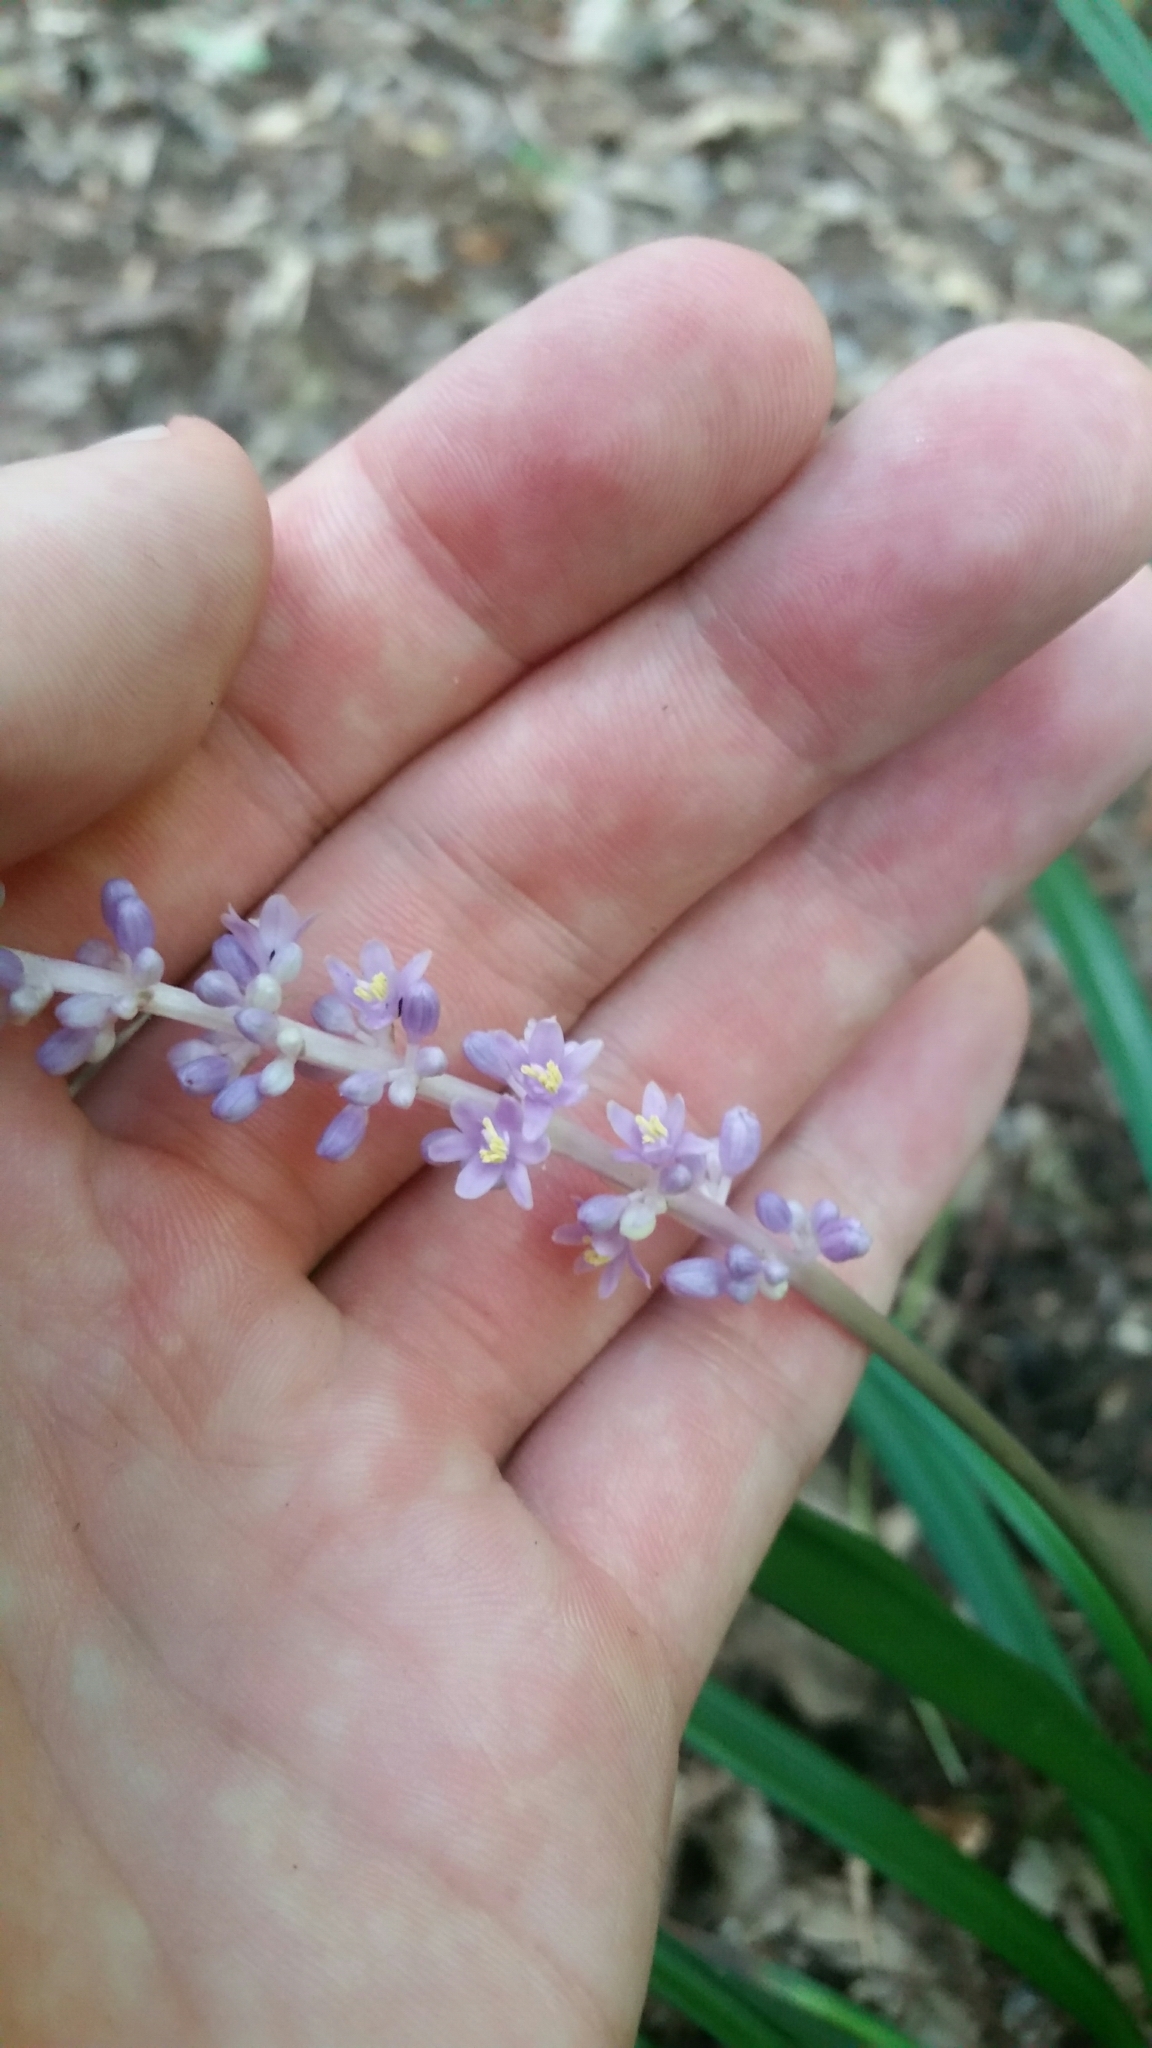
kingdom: Plantae
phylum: Tracheophyta
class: Liliopsida
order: Asparagales
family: Asparagaceae
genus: Liriope
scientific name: Liriope muscari
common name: Big blue lilyturf
